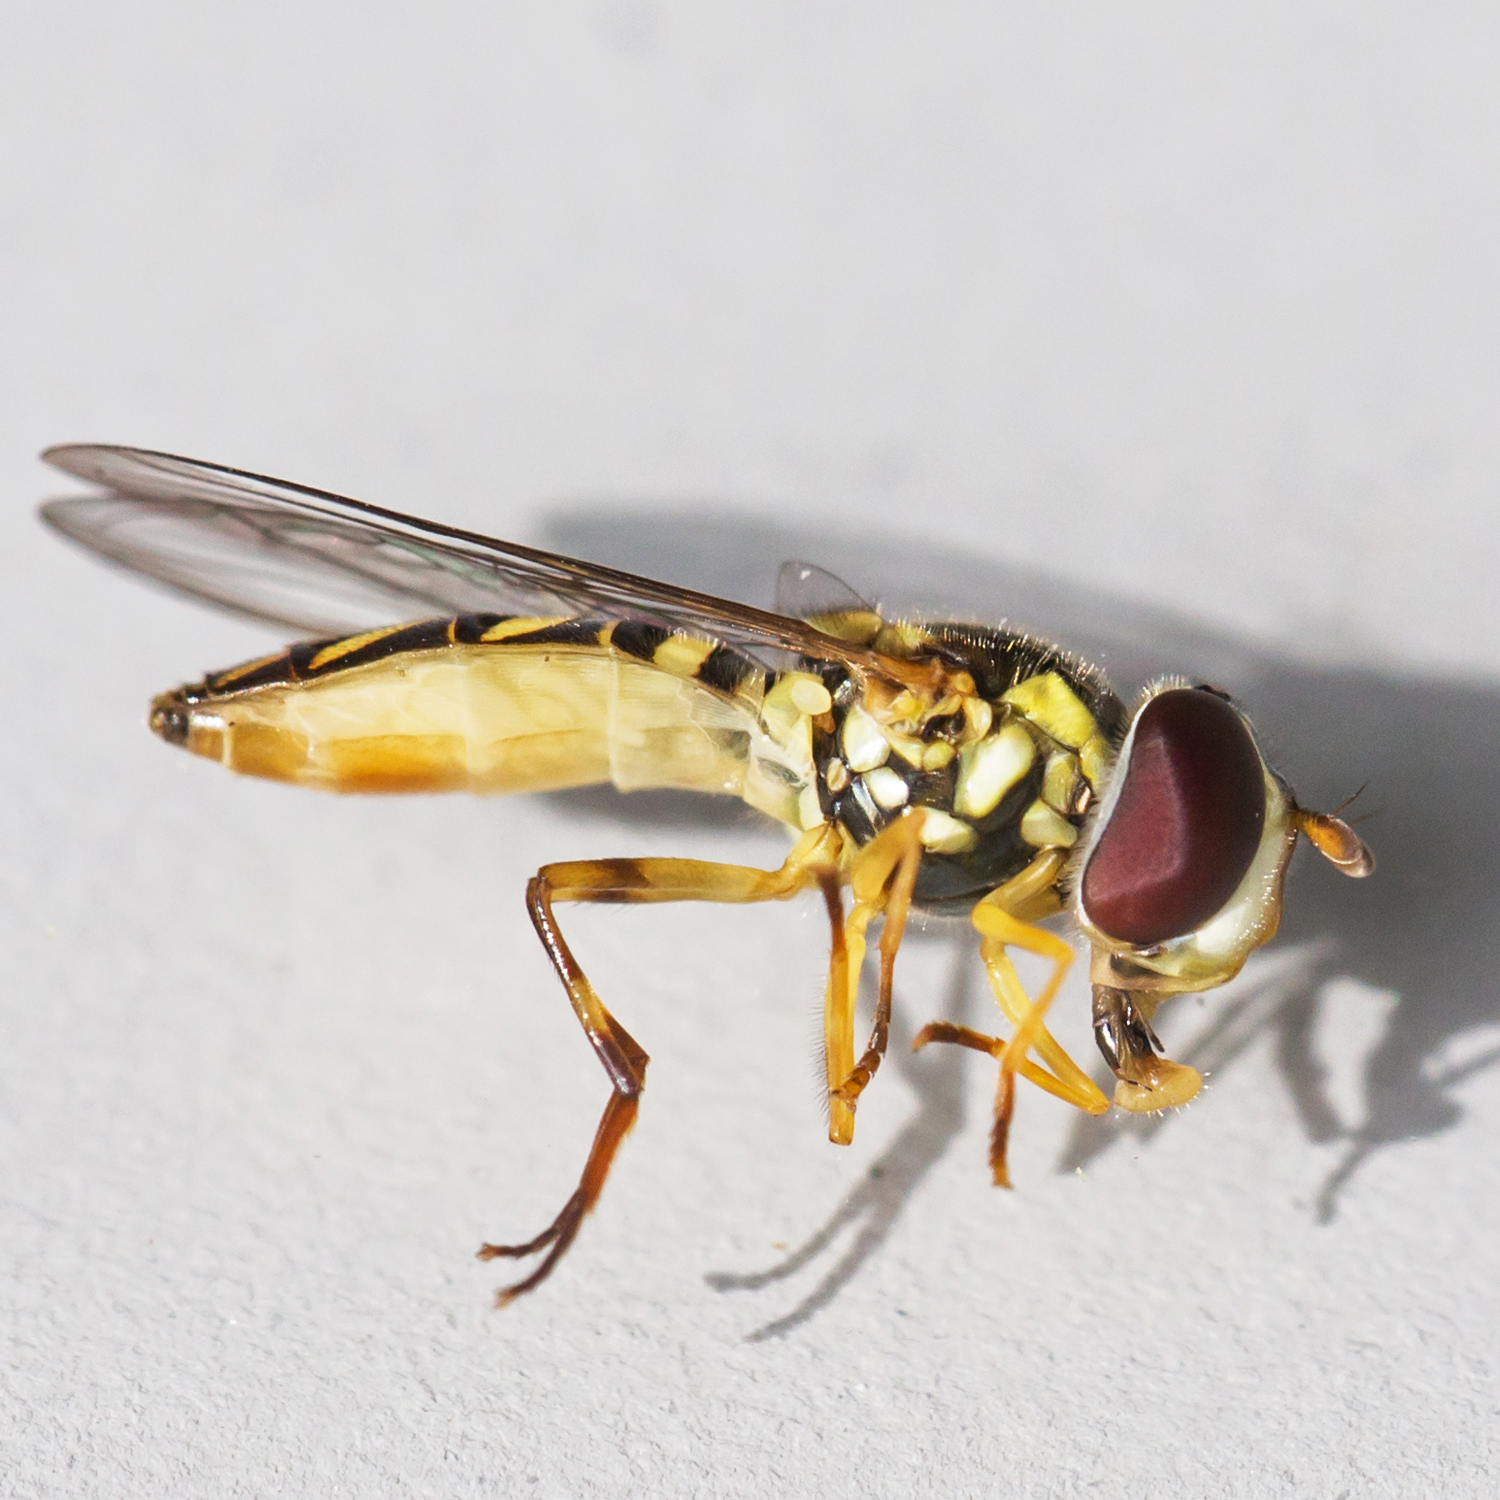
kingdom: Animalia
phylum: Arthropoda
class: Insecta
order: Diptera
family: Syrphidae
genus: Allograpta
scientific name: Allograpta obliqua
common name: Common oblique syrphid
